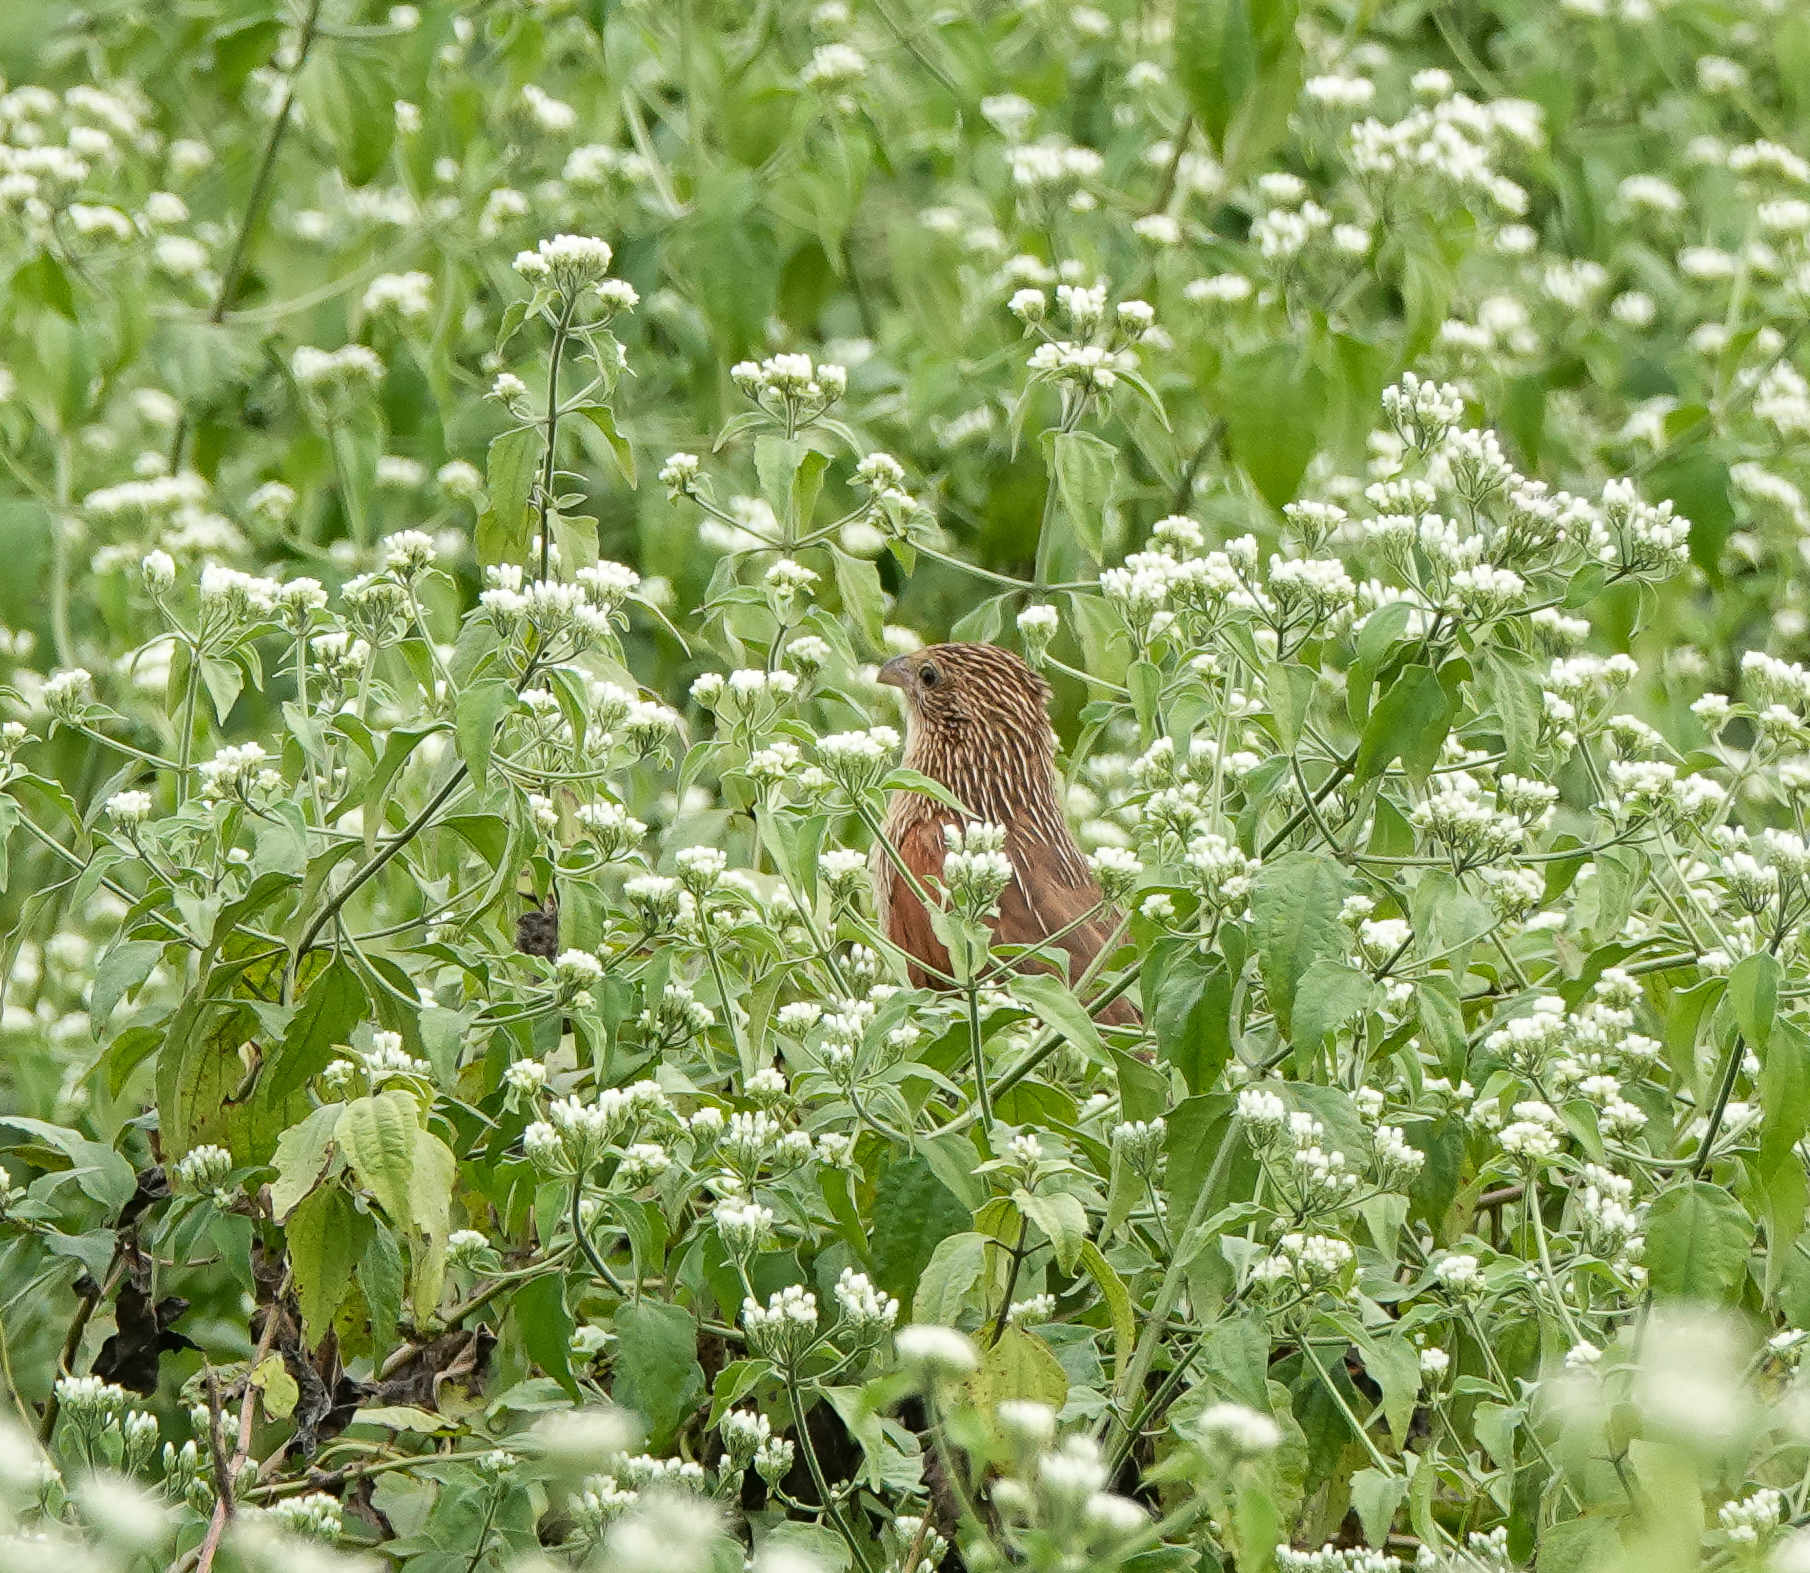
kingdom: Animalia
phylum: Chordata
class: Aves
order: Cuculiformes
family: Cuculidae
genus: Centropus
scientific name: Centropus bengalensis
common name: Lesser coucal
